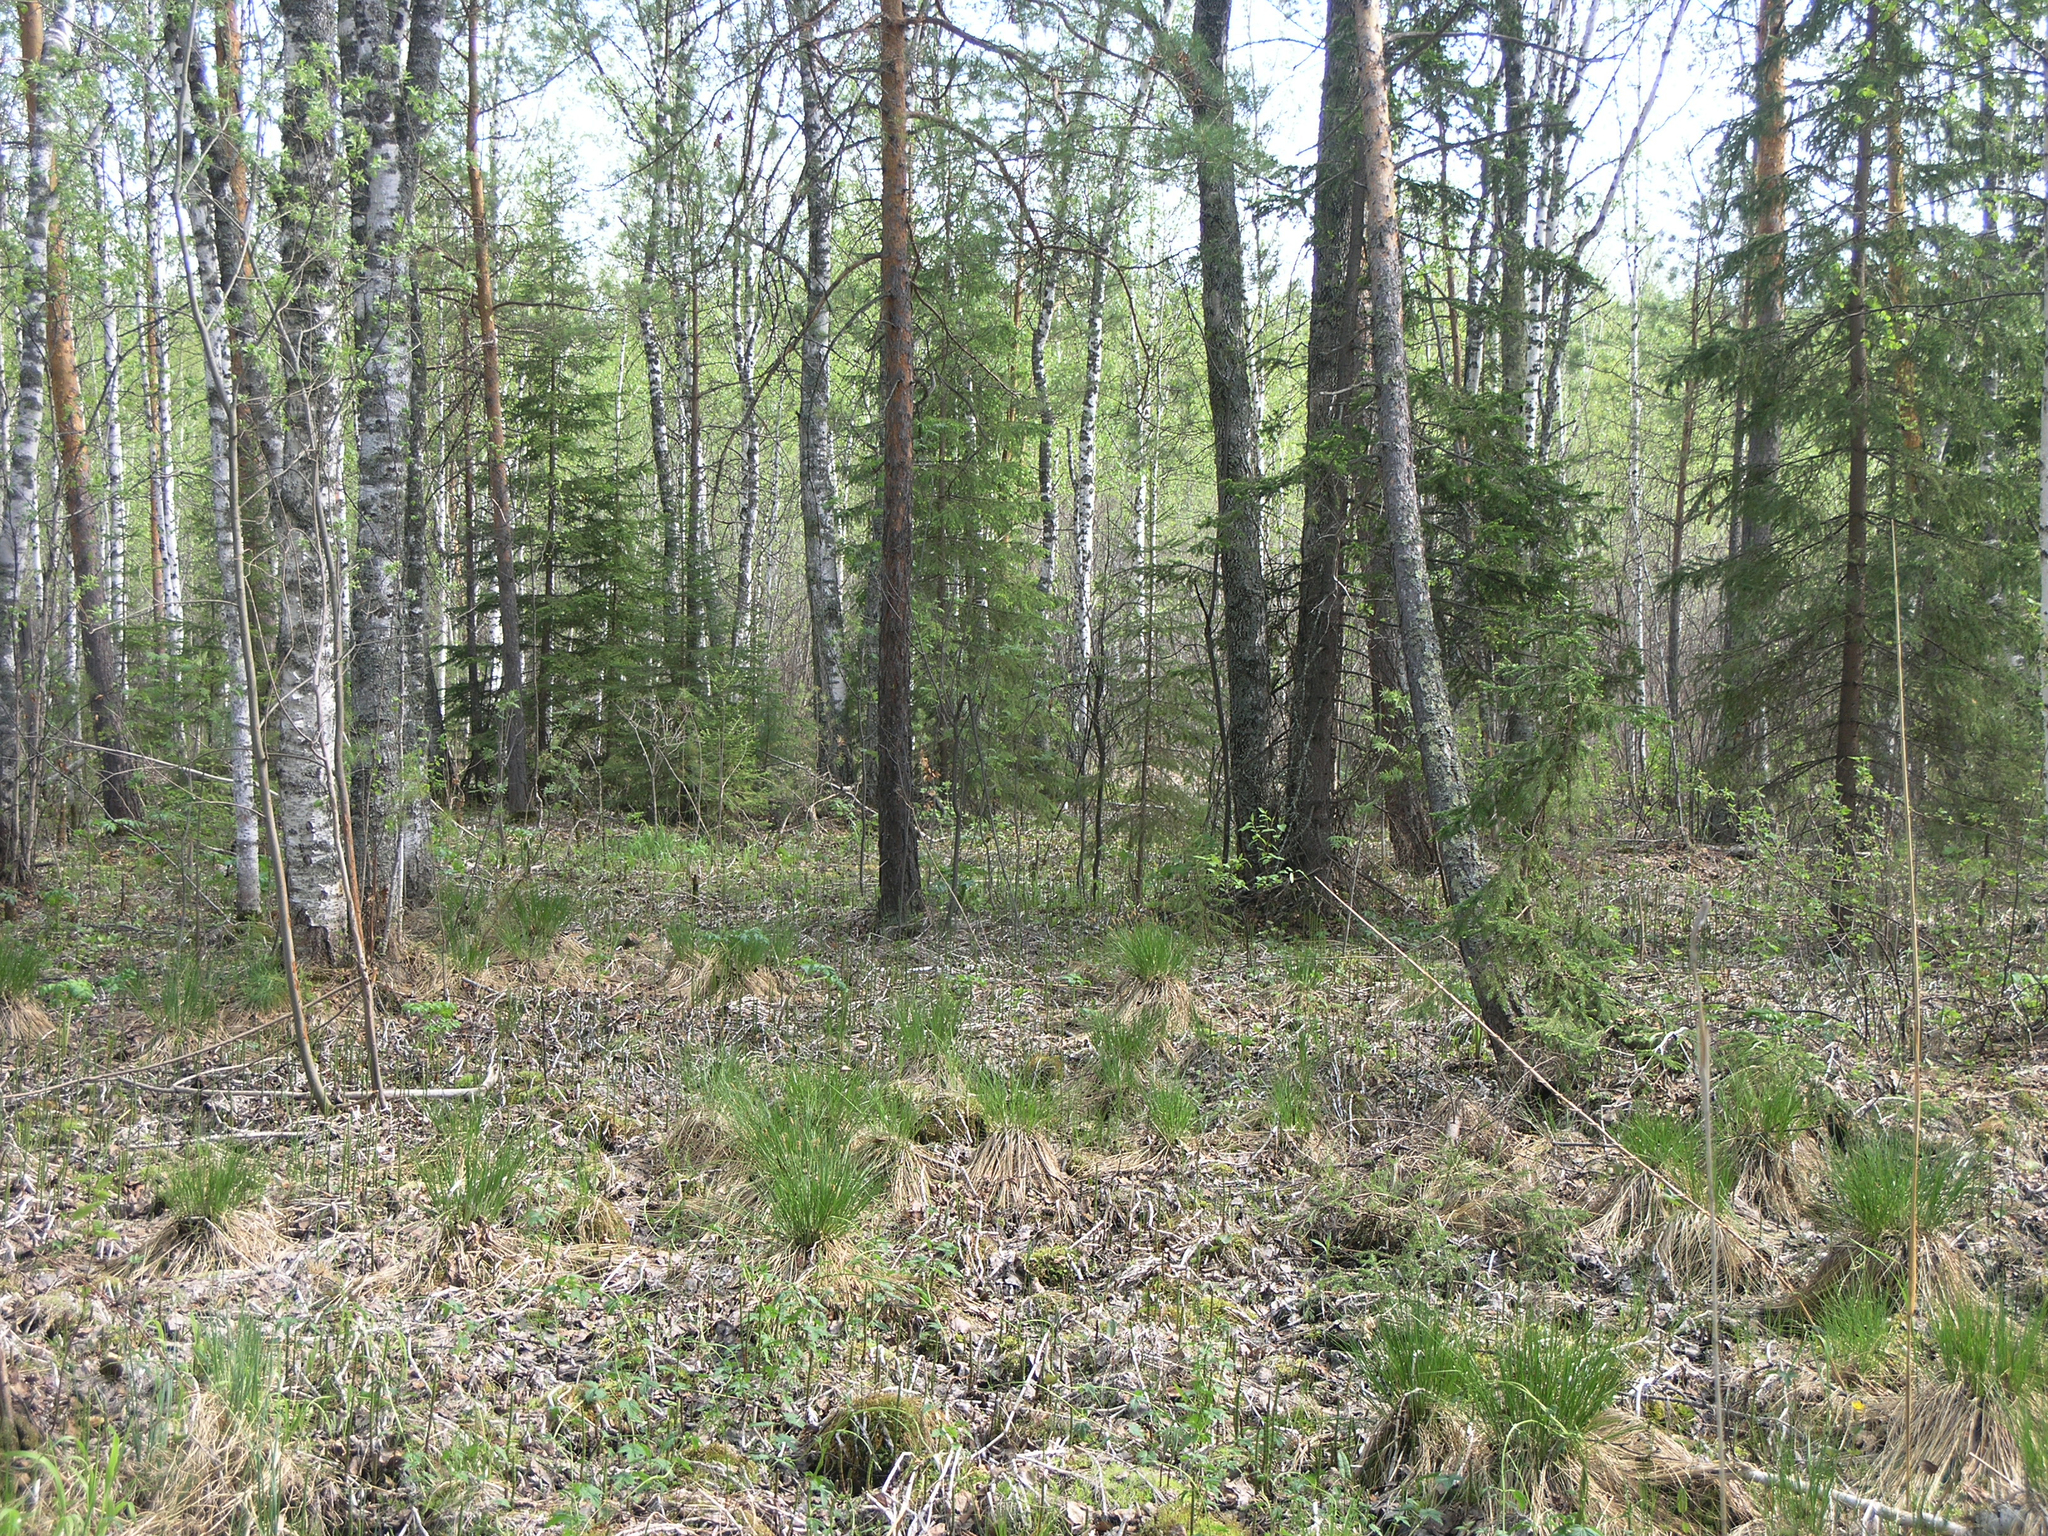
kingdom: Plantae
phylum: Tracheophyta
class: Pinopsida
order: Pinales
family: Pinaceae
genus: Picea
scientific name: Picea obovata
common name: Siberian spruce
